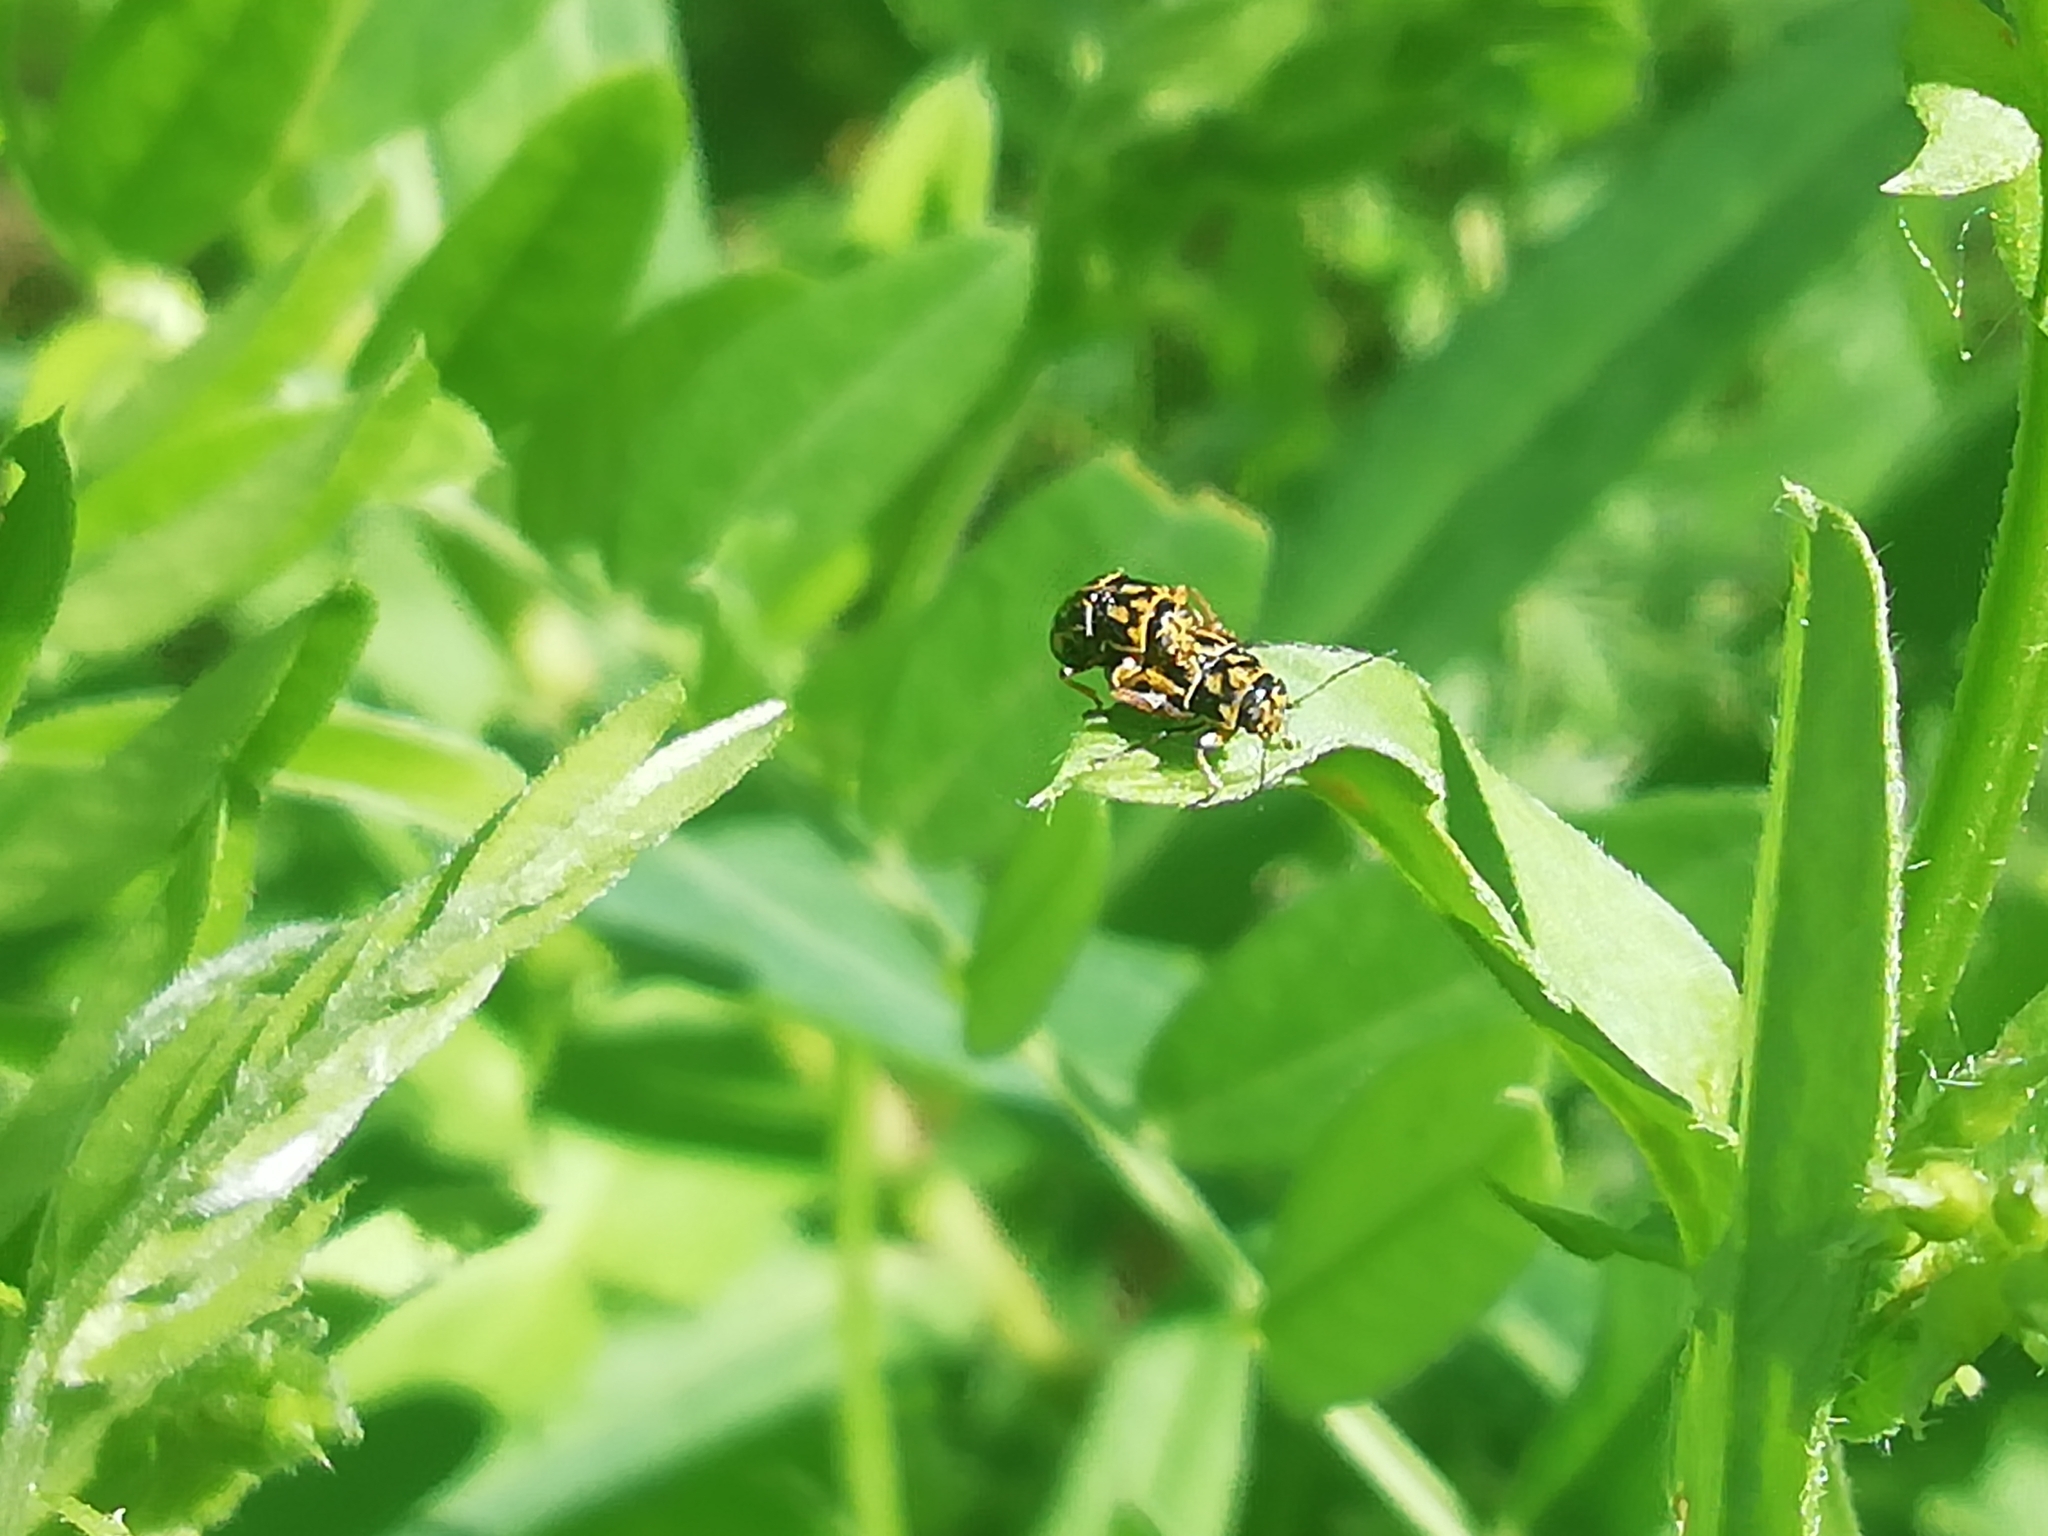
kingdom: Animalia
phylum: Arthropoda
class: Insecta
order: Coleoptera
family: Chrysomelidae
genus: Pachybrachis
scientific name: Pachybrachis hieroglyphicus
